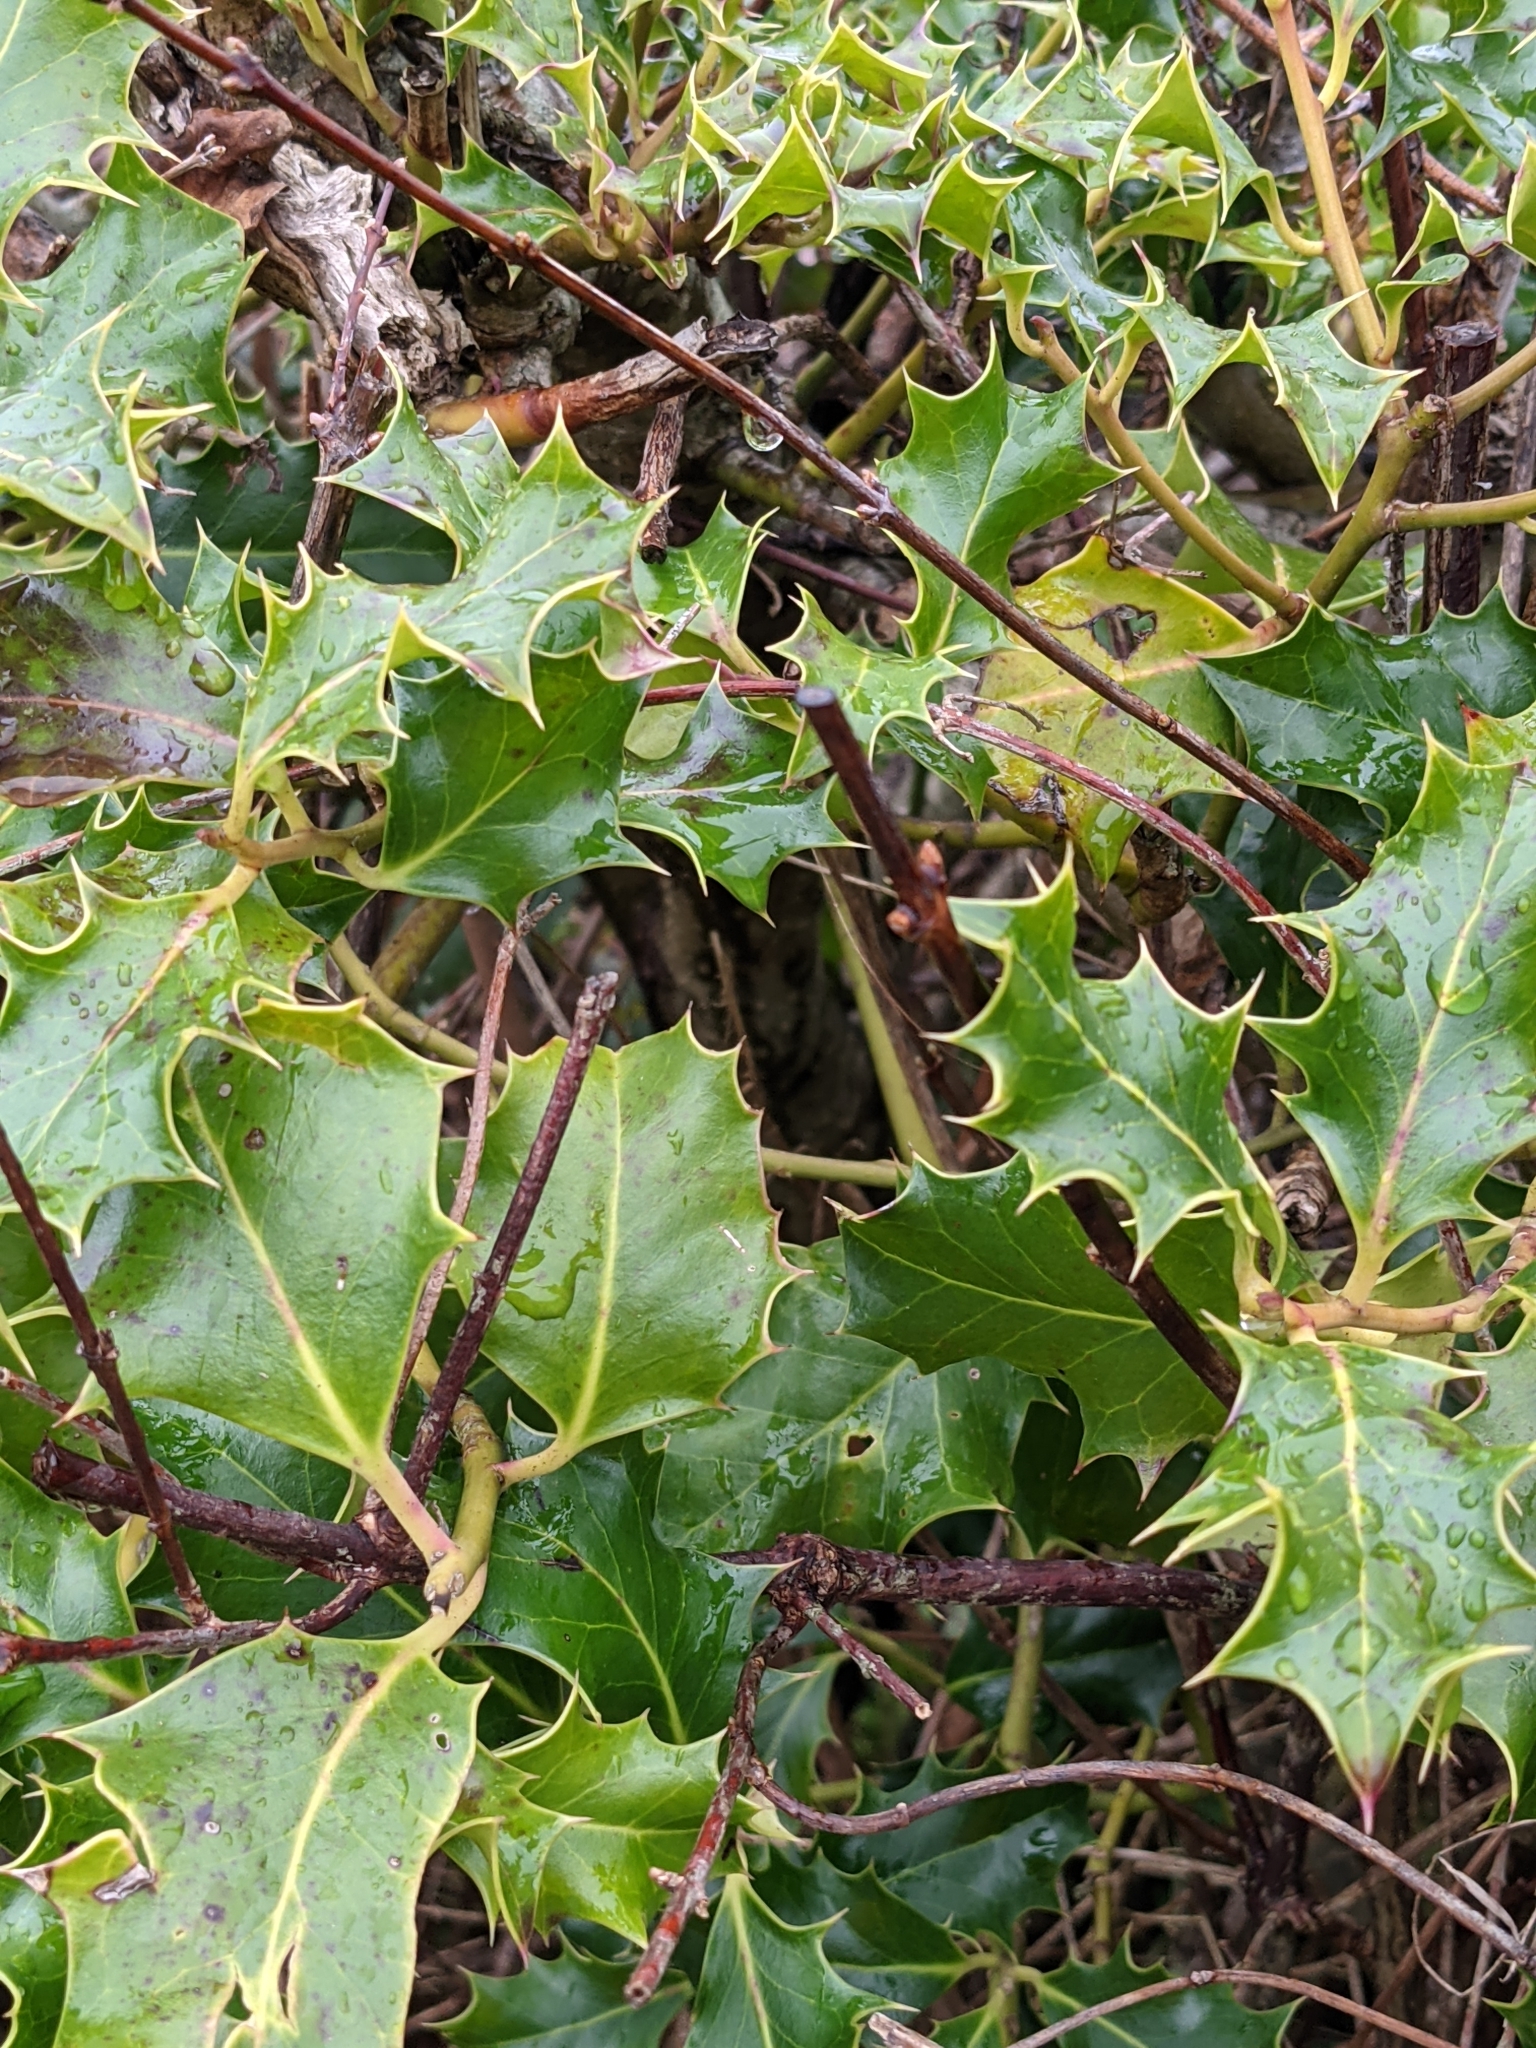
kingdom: Plantae
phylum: Tracheophyta
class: Magnoliopsida
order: Aquifoliales
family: Aquifoliaceae
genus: Ilex
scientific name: Ilex aquifolium
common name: English holly
